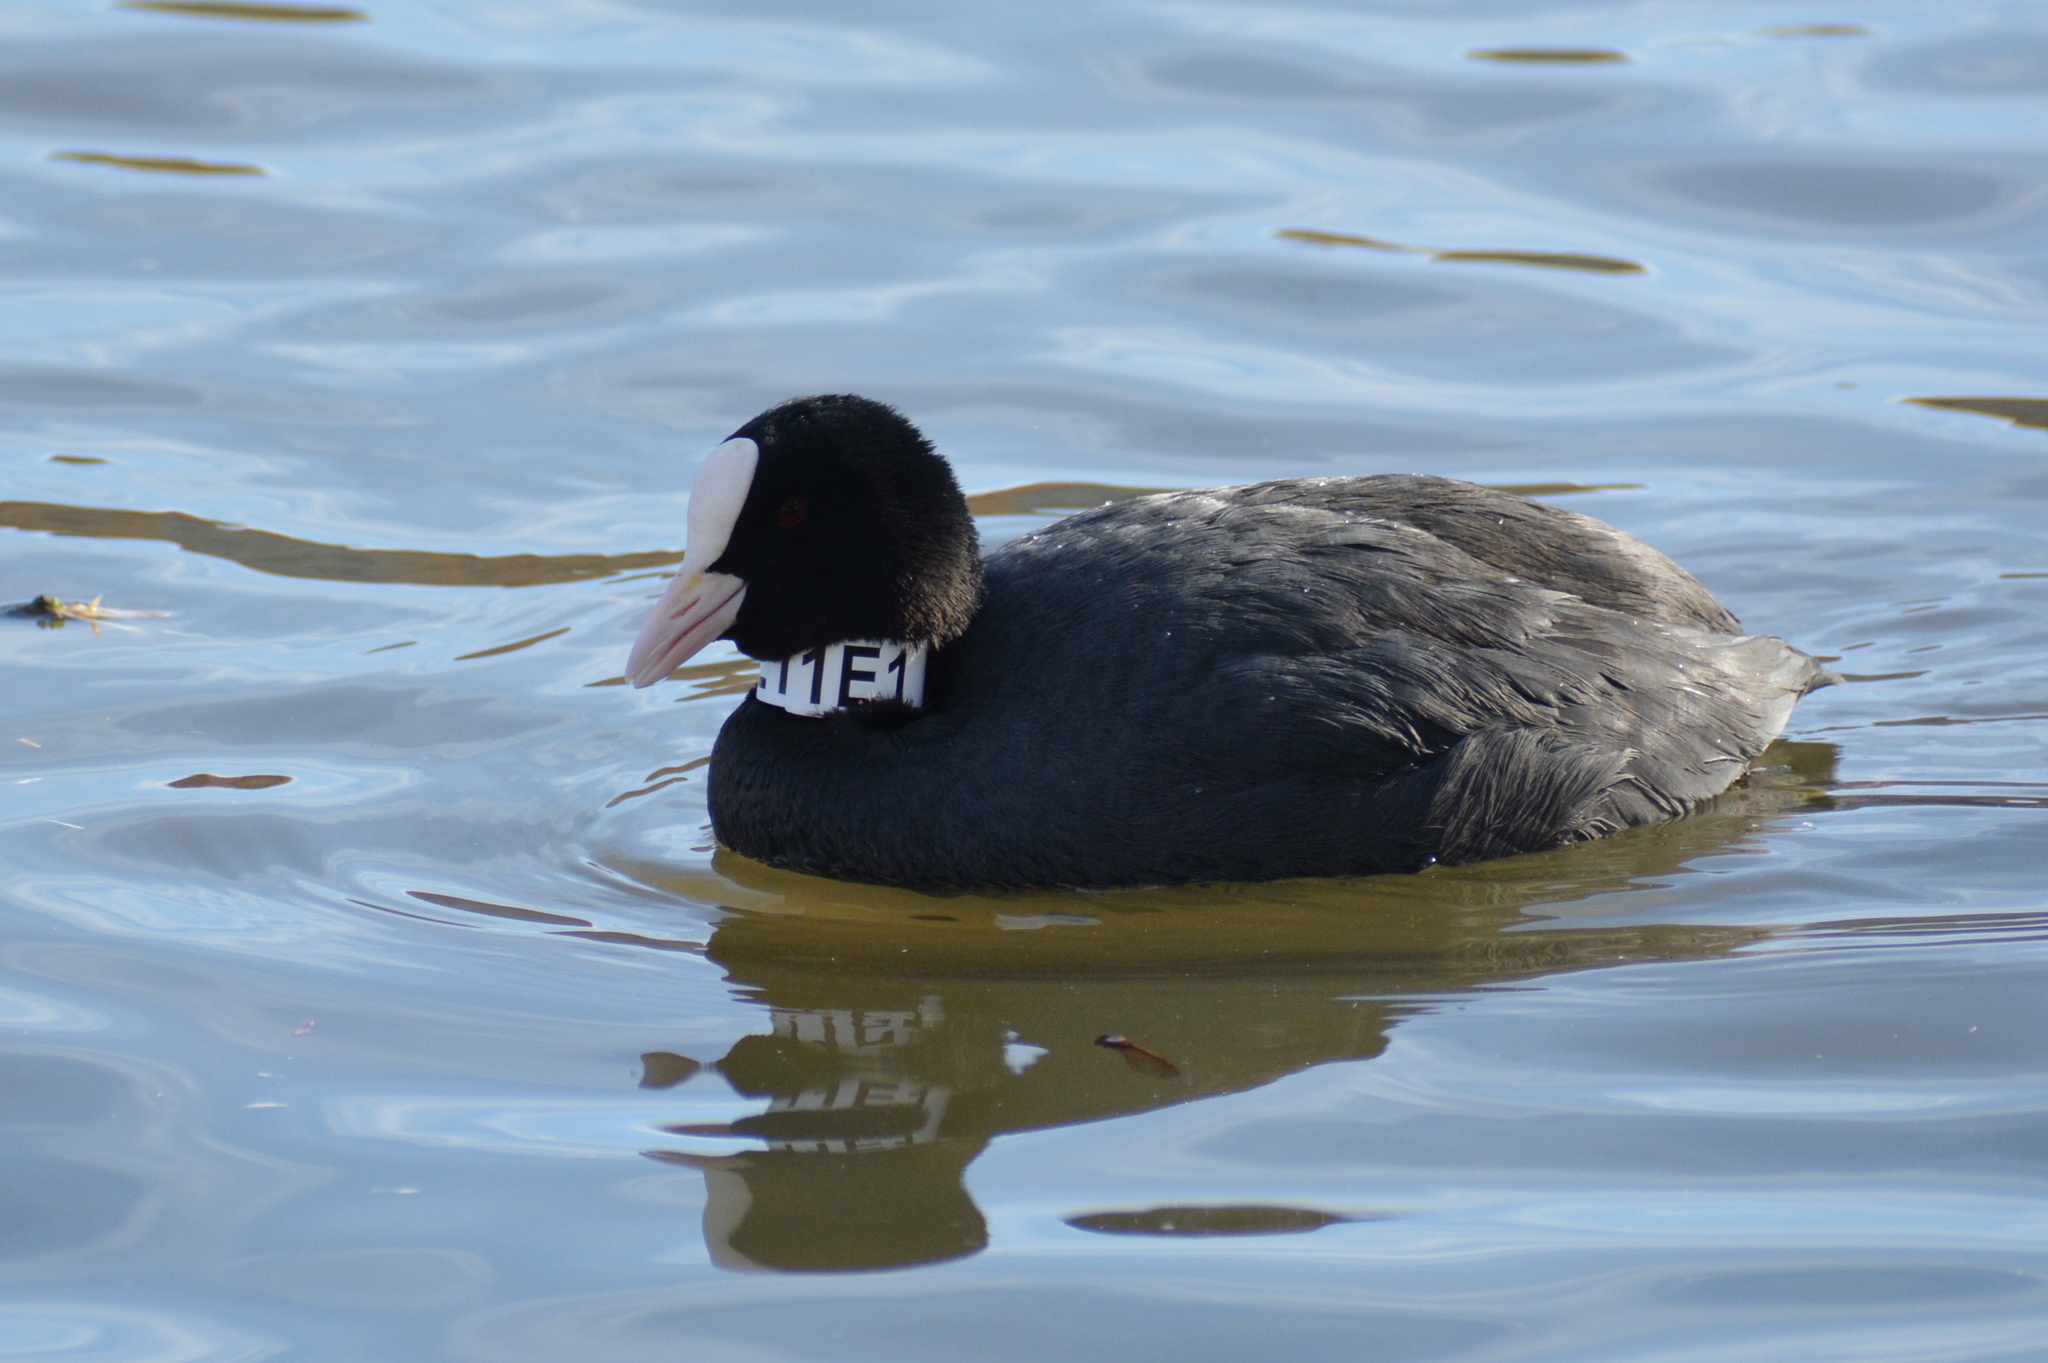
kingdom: Animalia
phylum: Chordata
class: Aves
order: Gruiformes
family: Rallidae
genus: Fulica
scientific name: Fulica atra
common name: Eurasian coot
